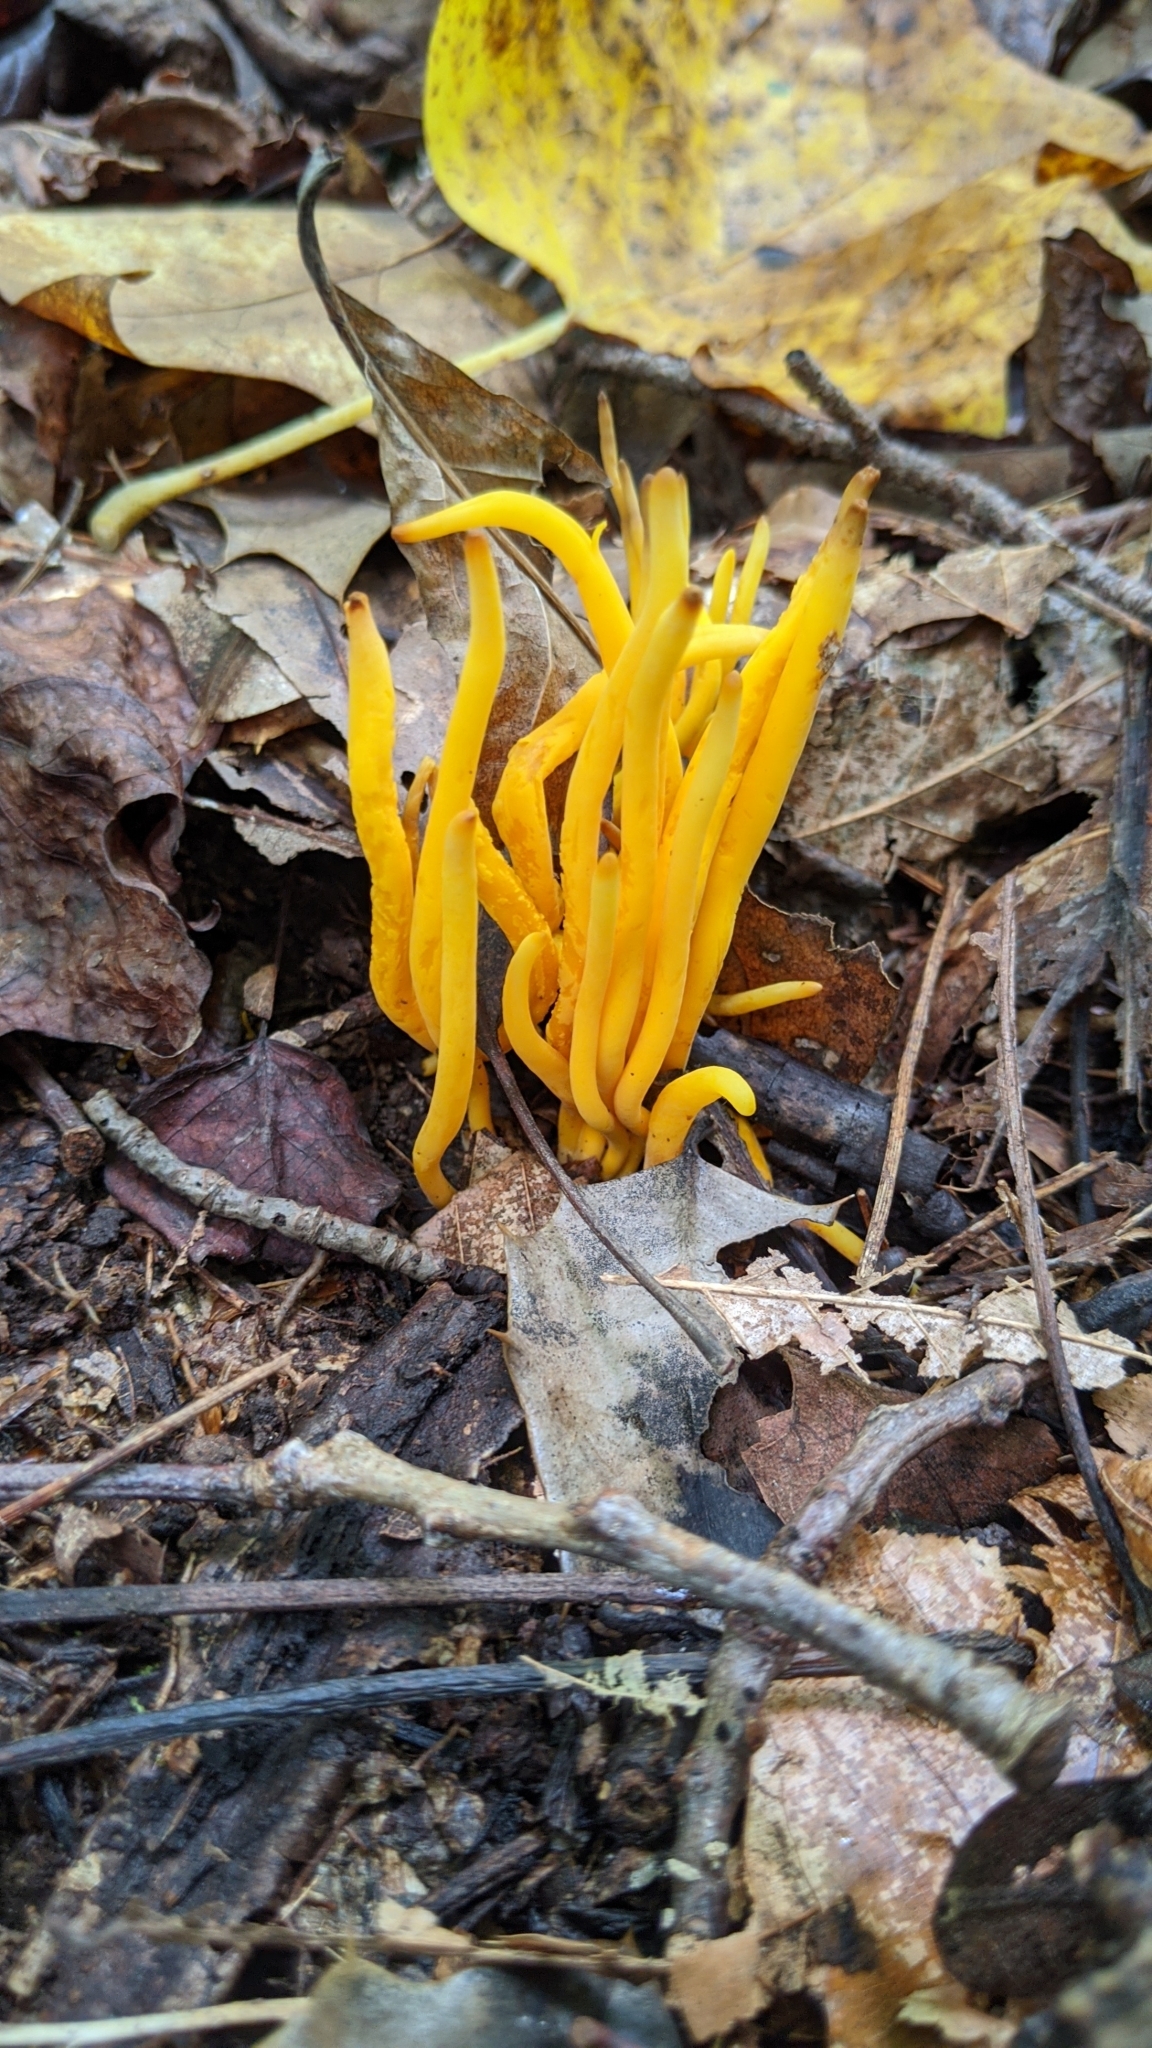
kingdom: Fungi
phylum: Basidiomycota
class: Agaricomycetes
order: Agaricales
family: Clavariaceae
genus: Clavulinopsis
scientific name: Clavulinopsis fusiformis
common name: Golden spindles
